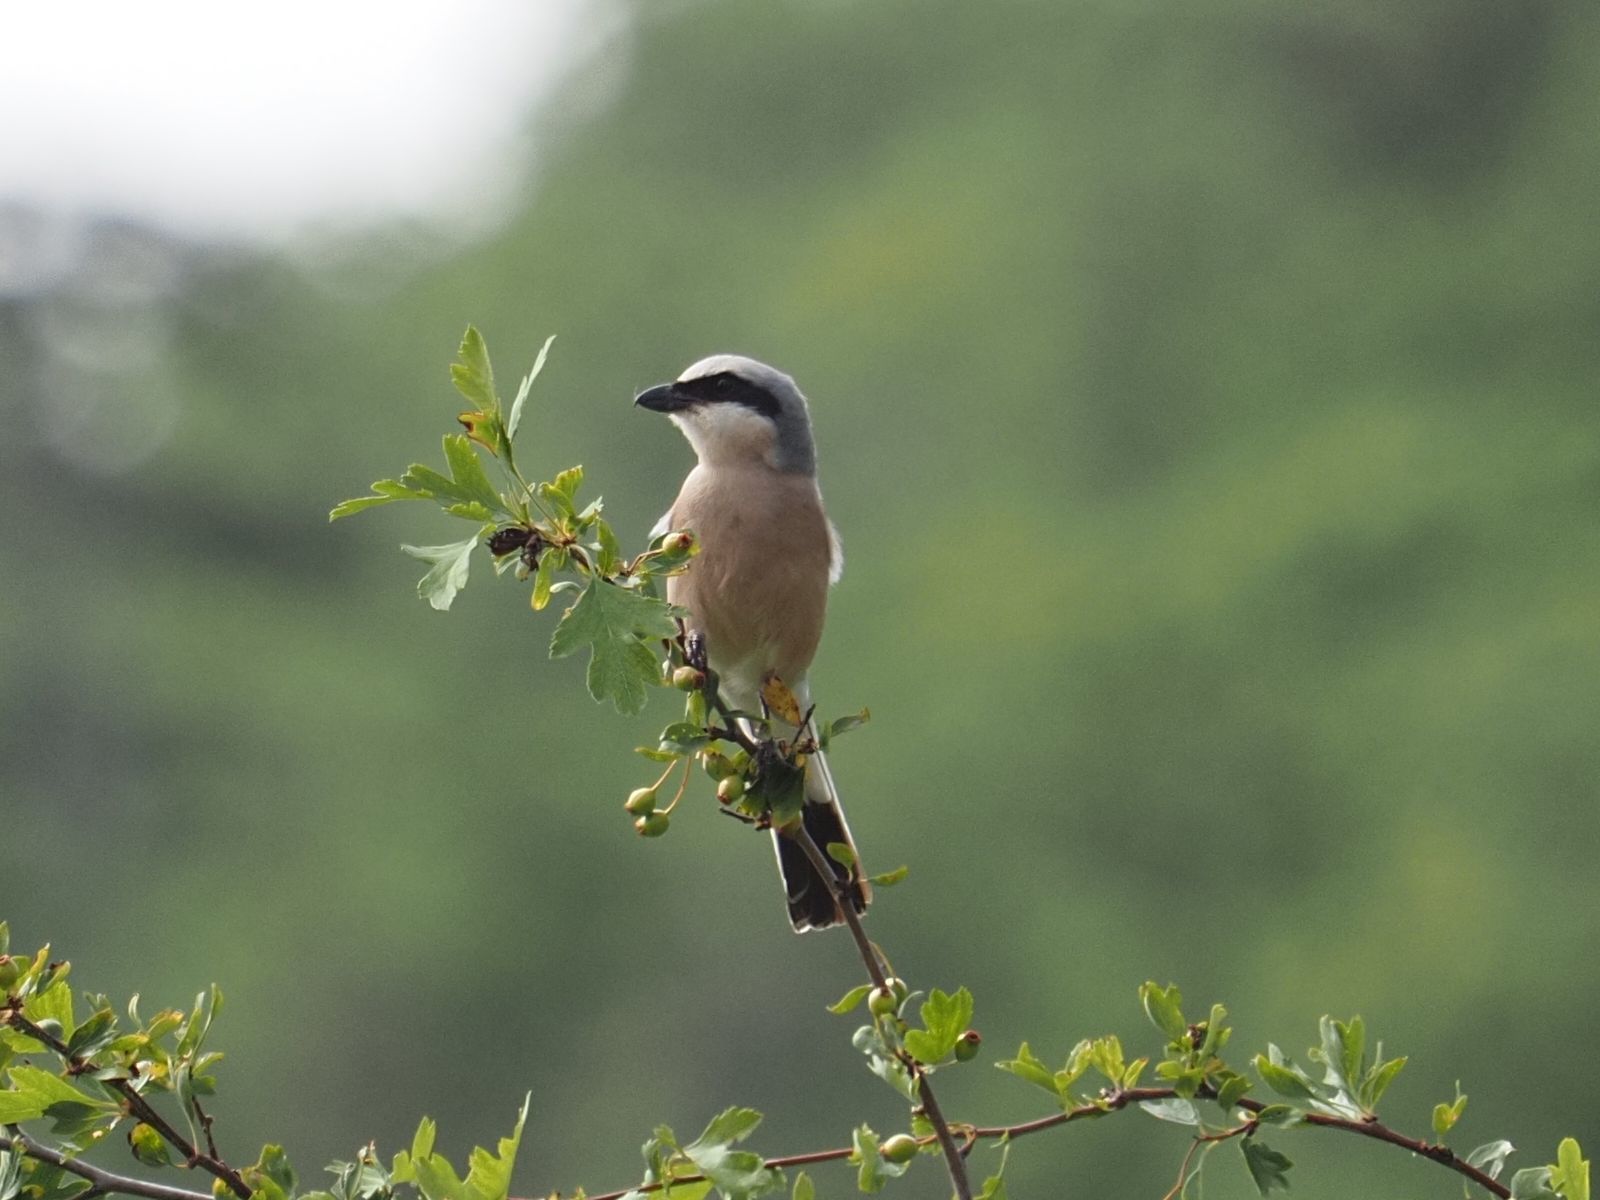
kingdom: Animalia
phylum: Chordata
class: Aves
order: Passeriformes
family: Laniidae
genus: Lanius
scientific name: Lanius collurio
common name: Red-backed shrike
